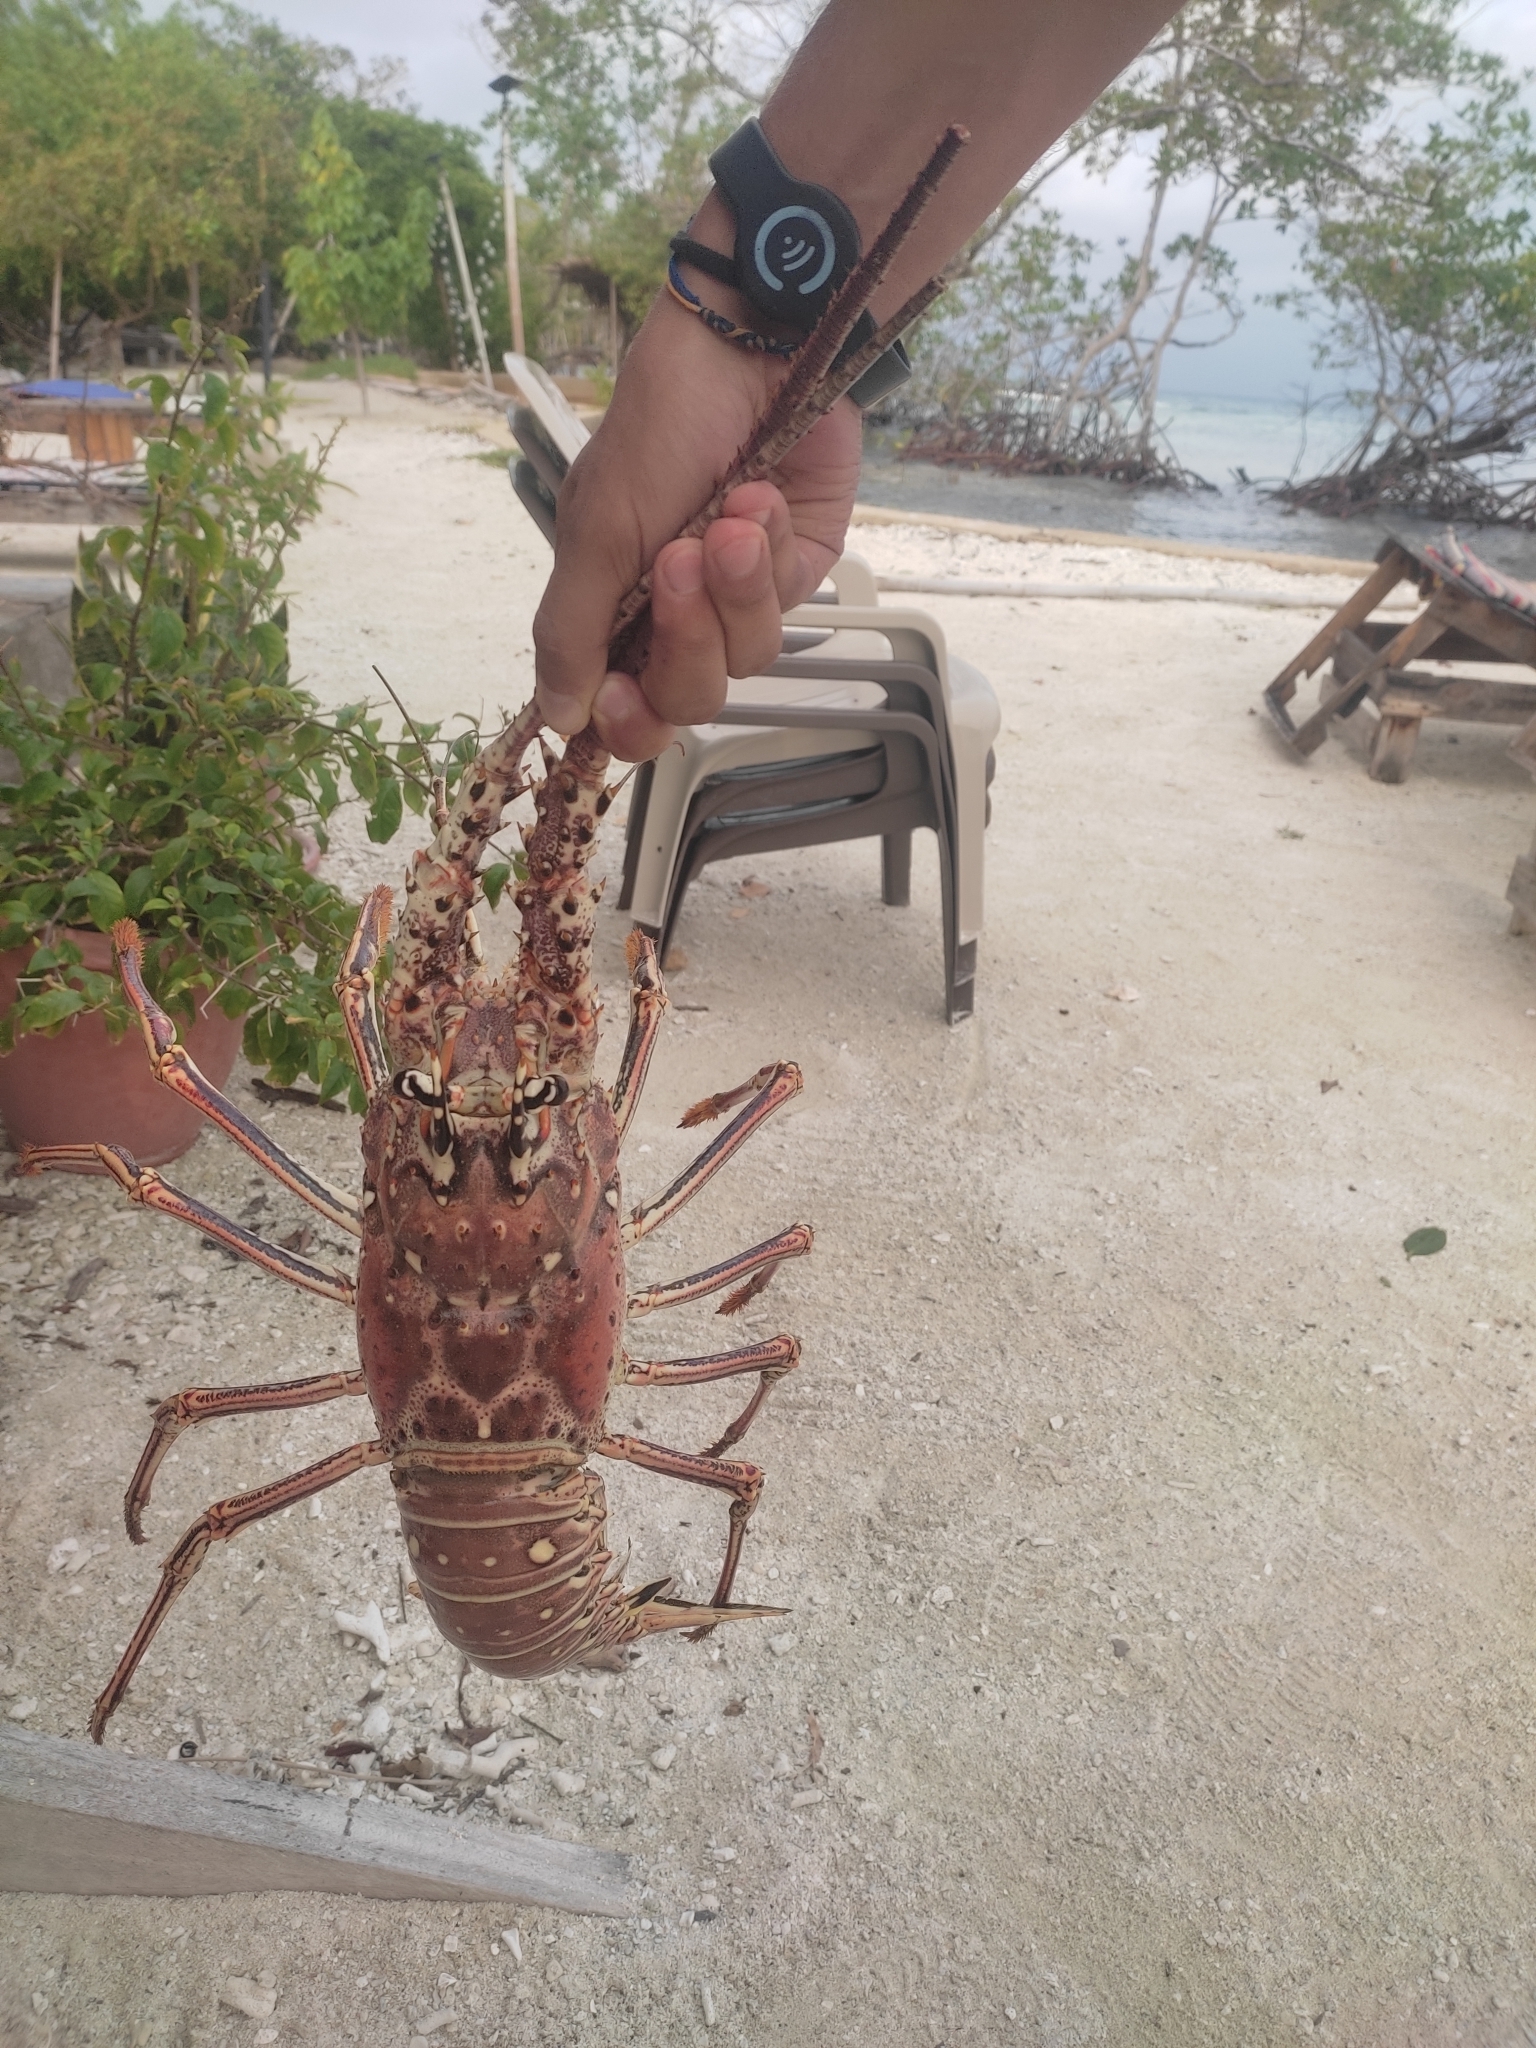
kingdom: Animalia
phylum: Arthropoda
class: Malacostraca
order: Decapoda
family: Palinuridae
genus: Panulirus
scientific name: Panulirus argus
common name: Caribbean spiny lobster
